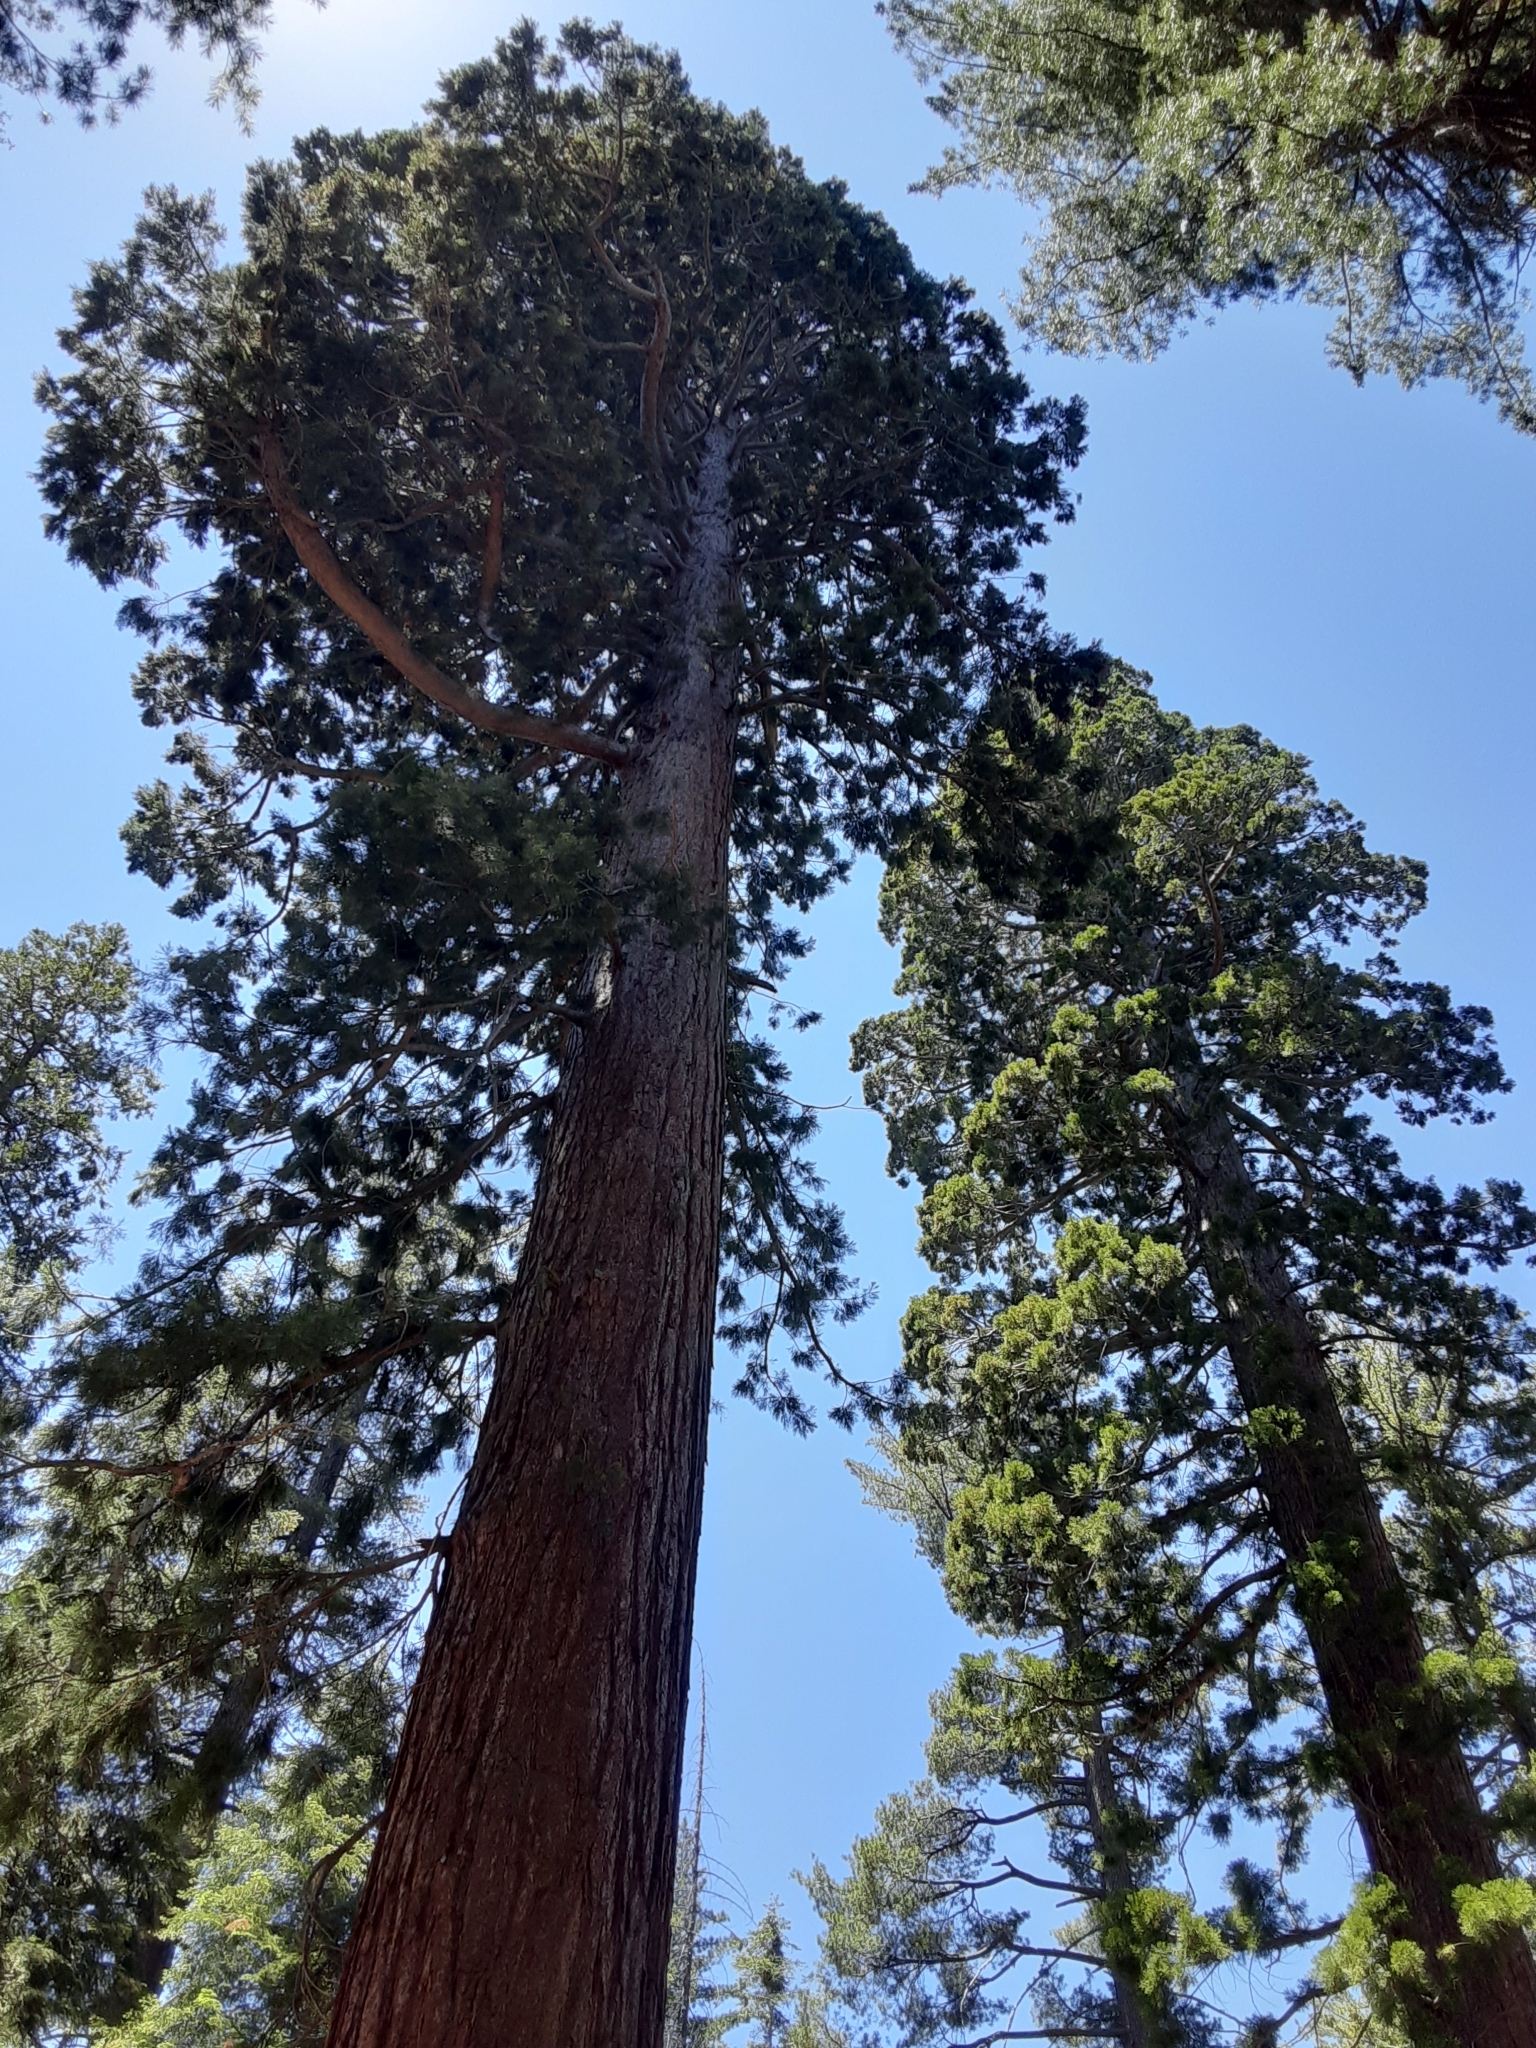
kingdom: Plantae
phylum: Tracheophyta
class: Pinopsida
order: Pinales
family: Cupressaceae
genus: Sequoiadendron
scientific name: Sequoiadendron giganteum
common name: Wellingtonia
